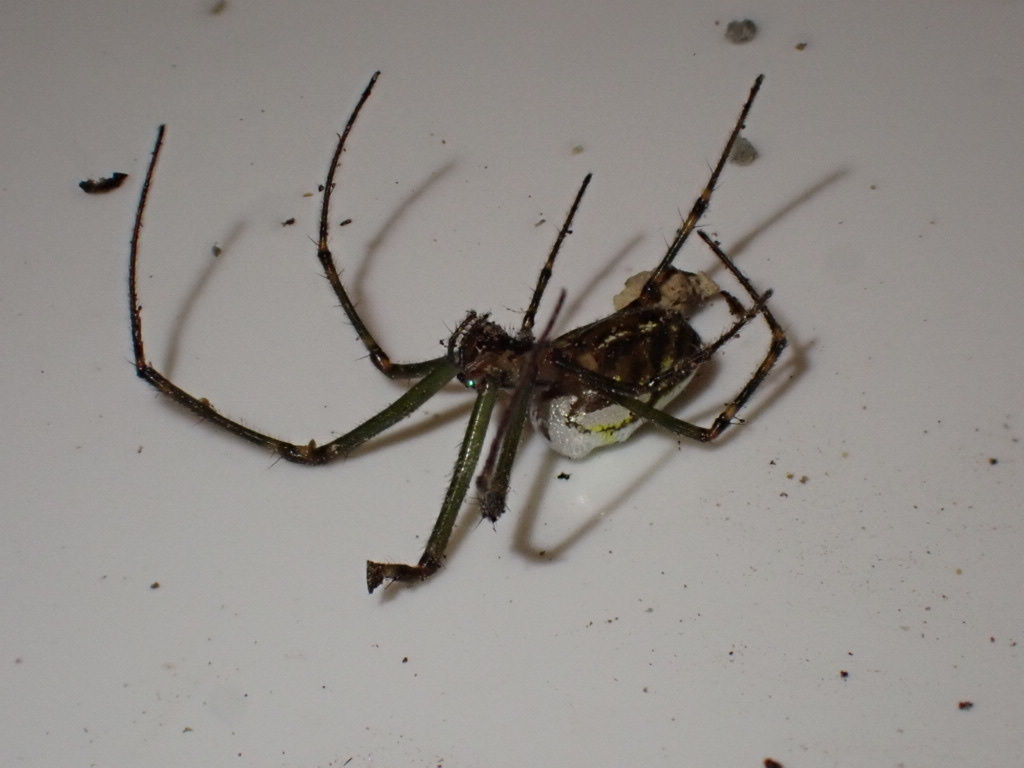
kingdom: Animalia
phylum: Arthropoda
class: Arachnida
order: Araneae
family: Tetragnathidae
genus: Leucauge
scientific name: Leucauge dromedaria
